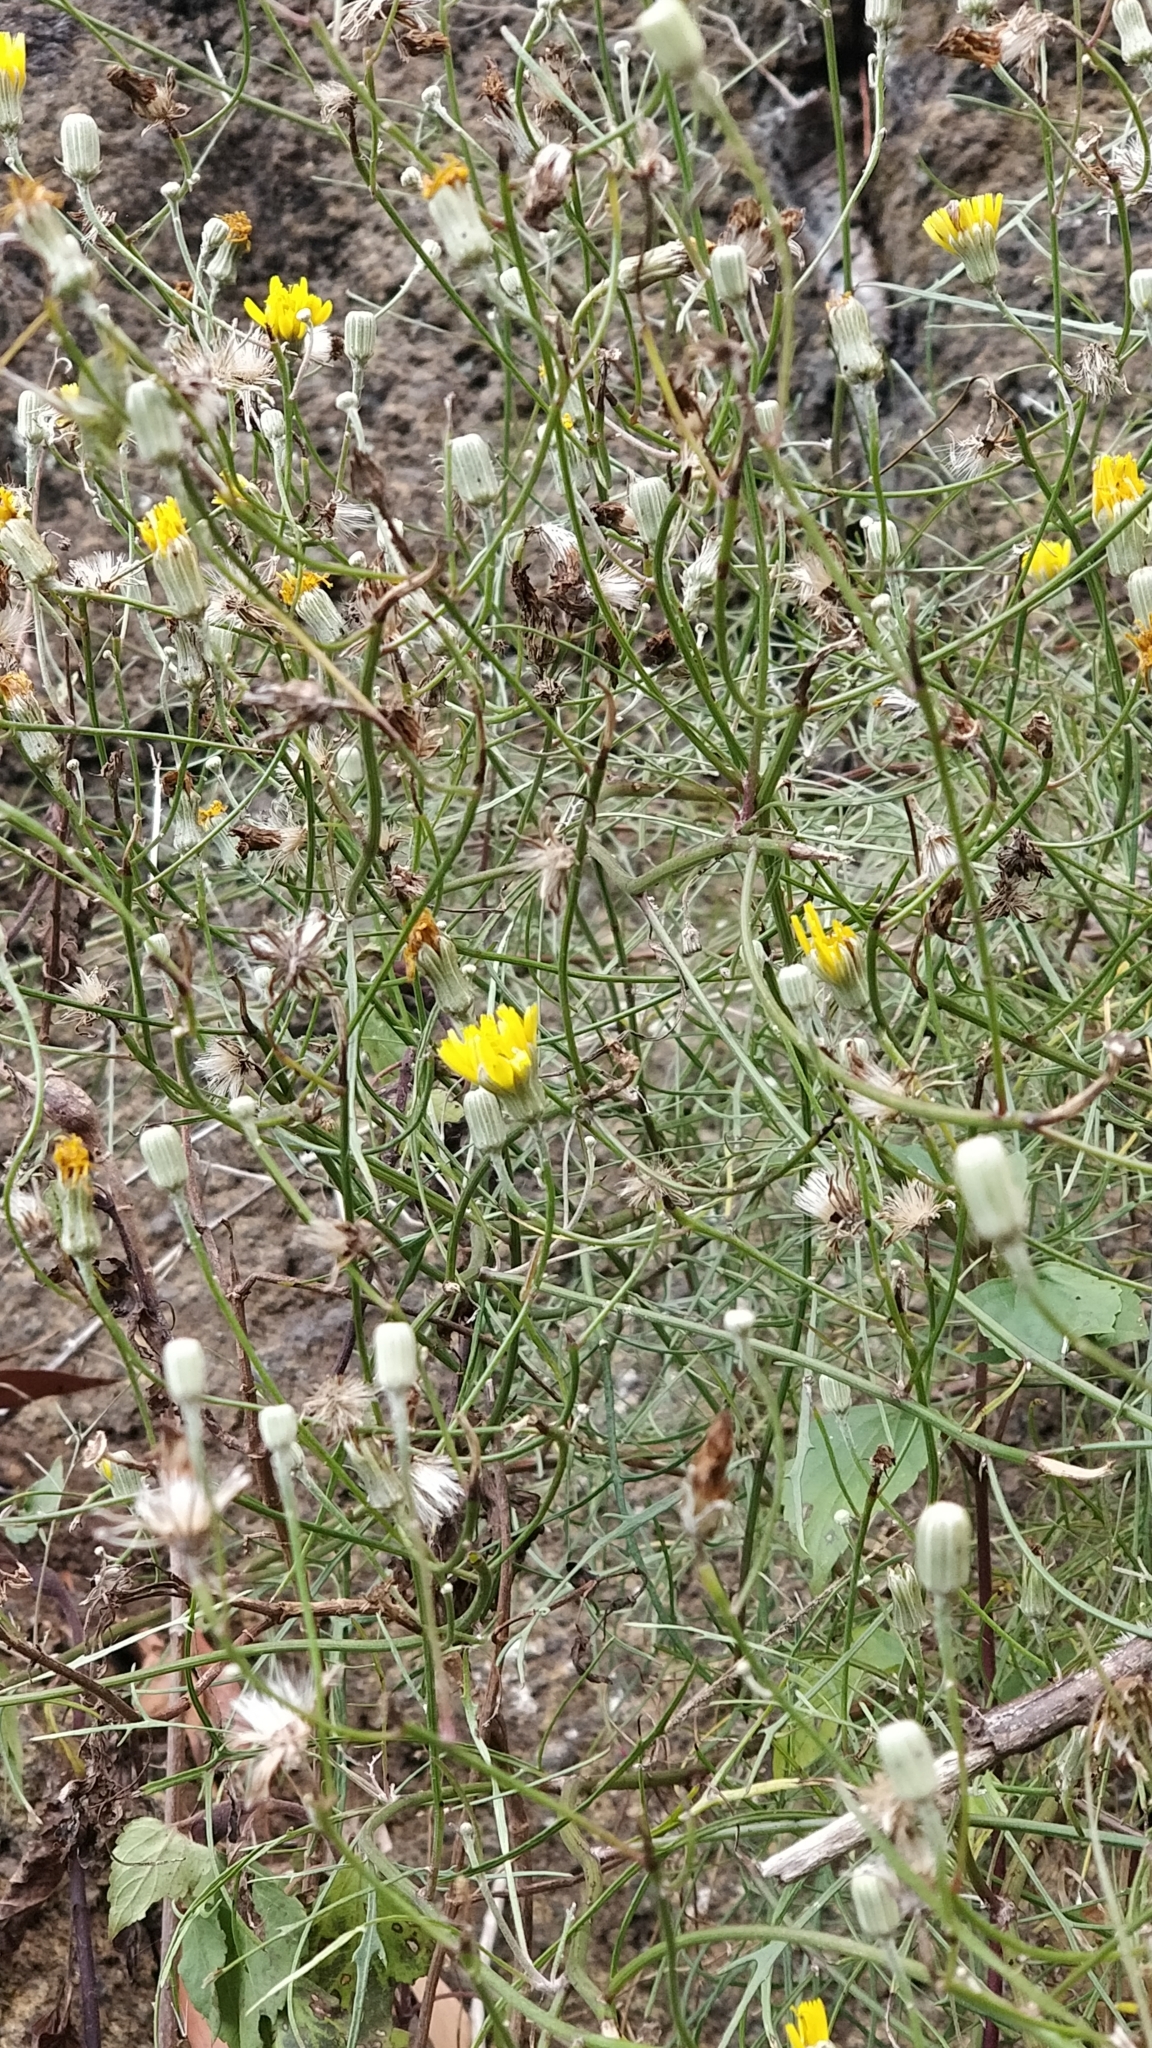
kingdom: Plantae
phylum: Tracheophyta
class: Magnoliopsida
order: Asterales
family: Asteraceae
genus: Tolpis
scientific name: Tolpis succulenta
